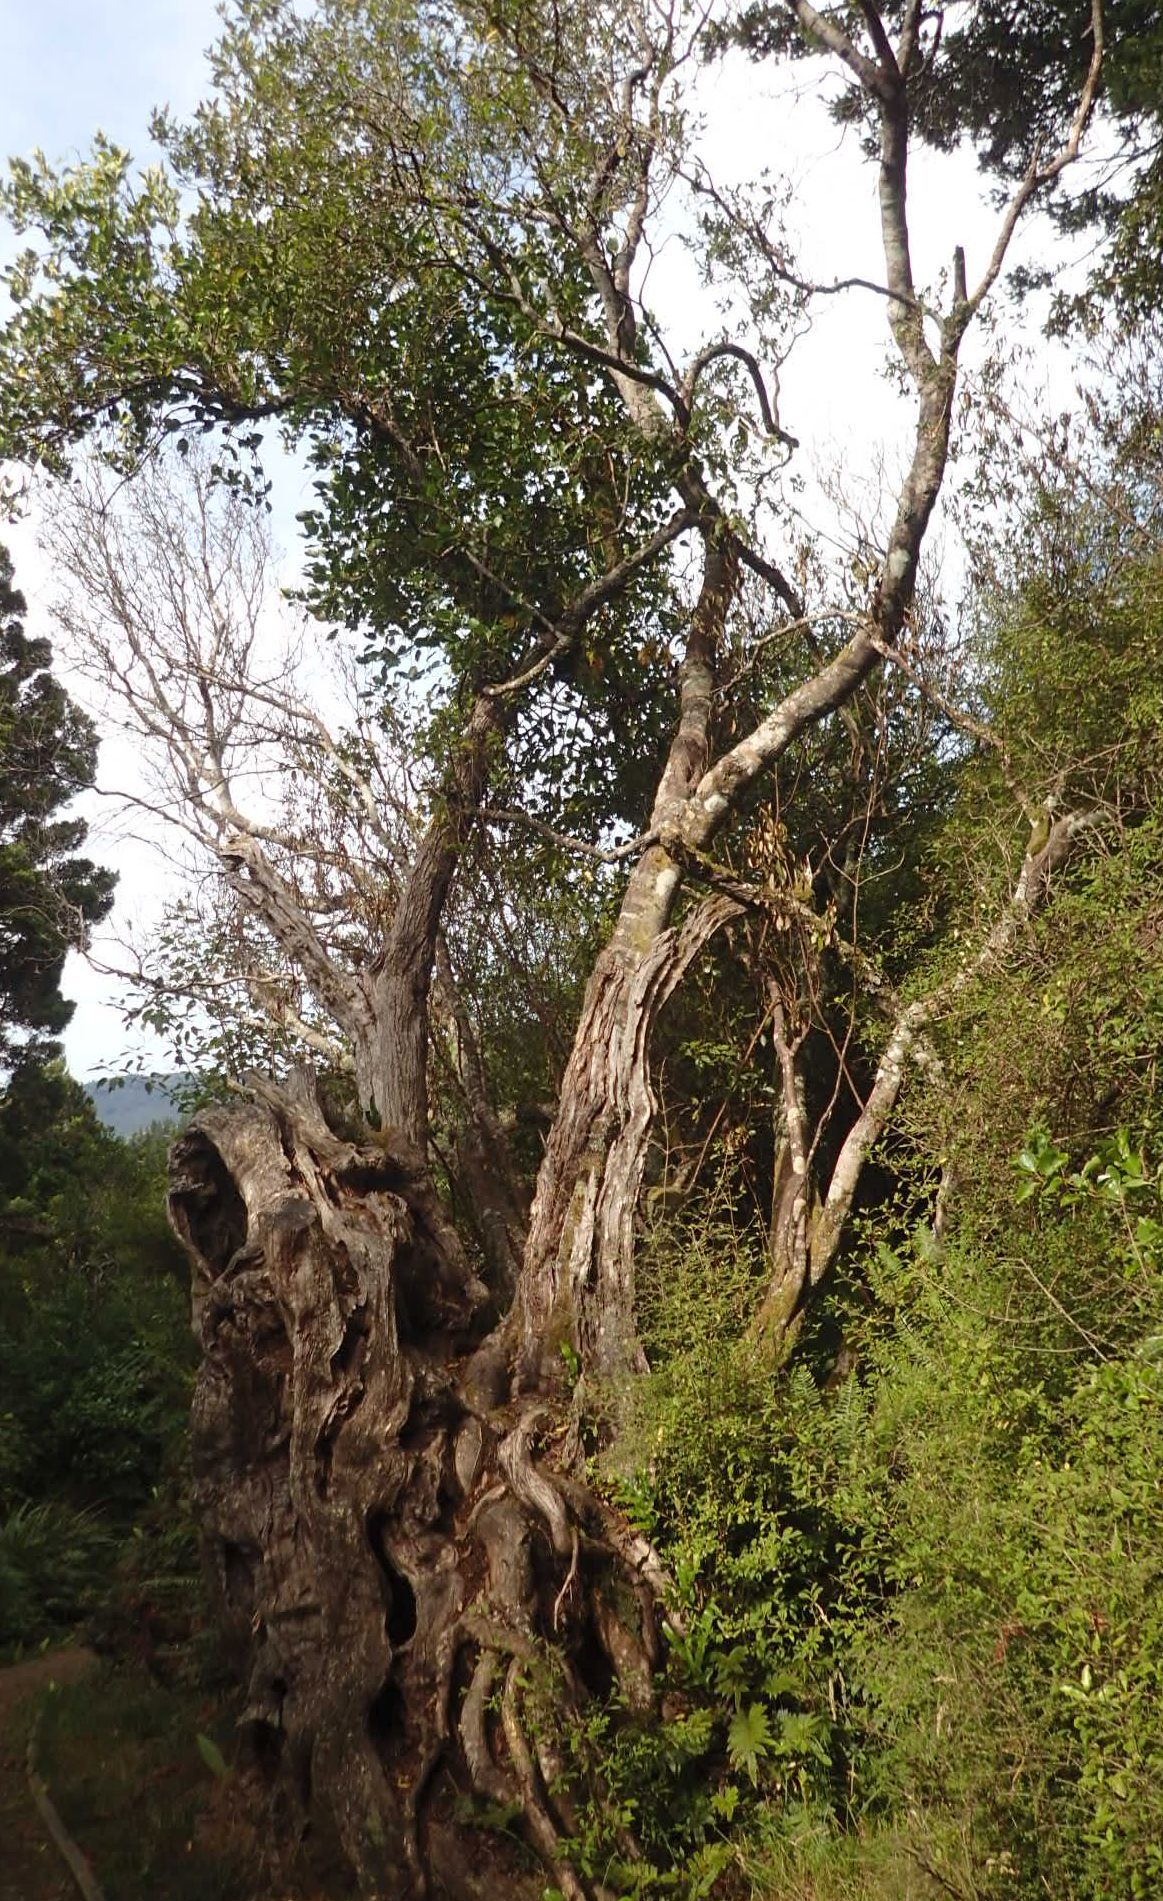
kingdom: Plantae
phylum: Tracheophyta
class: Magnoliopsida
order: Apiales
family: Griseliniaceae
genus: Griselinia
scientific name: Griselinia littoralis
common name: New zealand broadleaf
